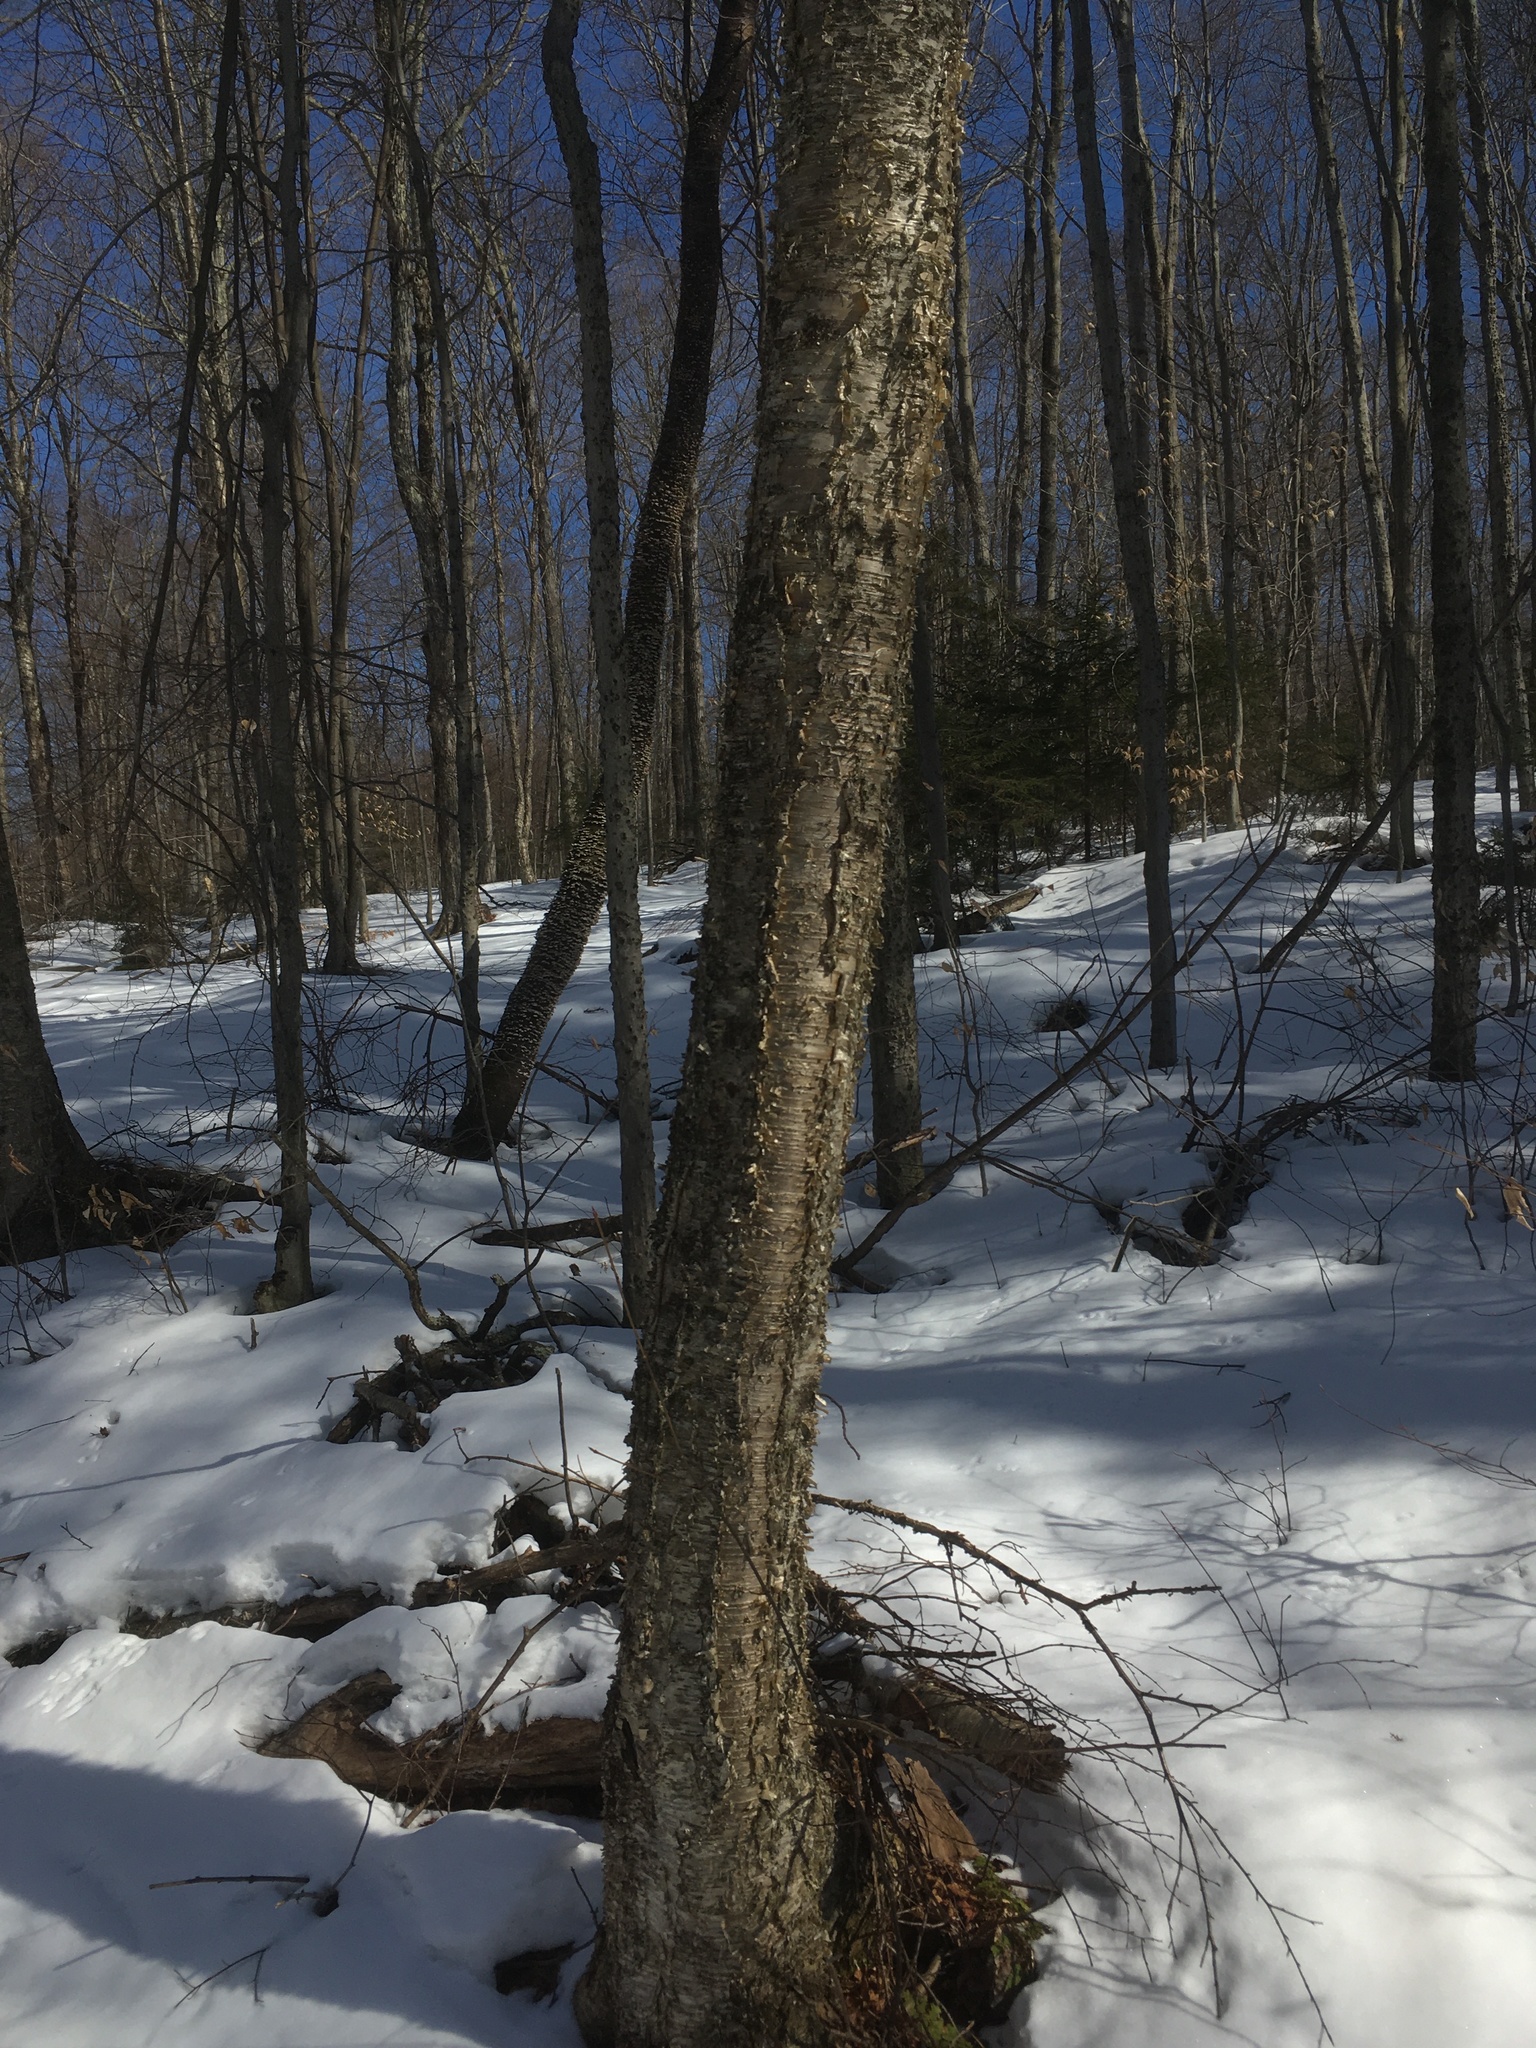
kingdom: Plantae
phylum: Tracheophyta
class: Magnoliopsida
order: Fagales
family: Betulaceae
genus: Betula
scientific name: Betula alleghaniensis
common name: Yellow birch
